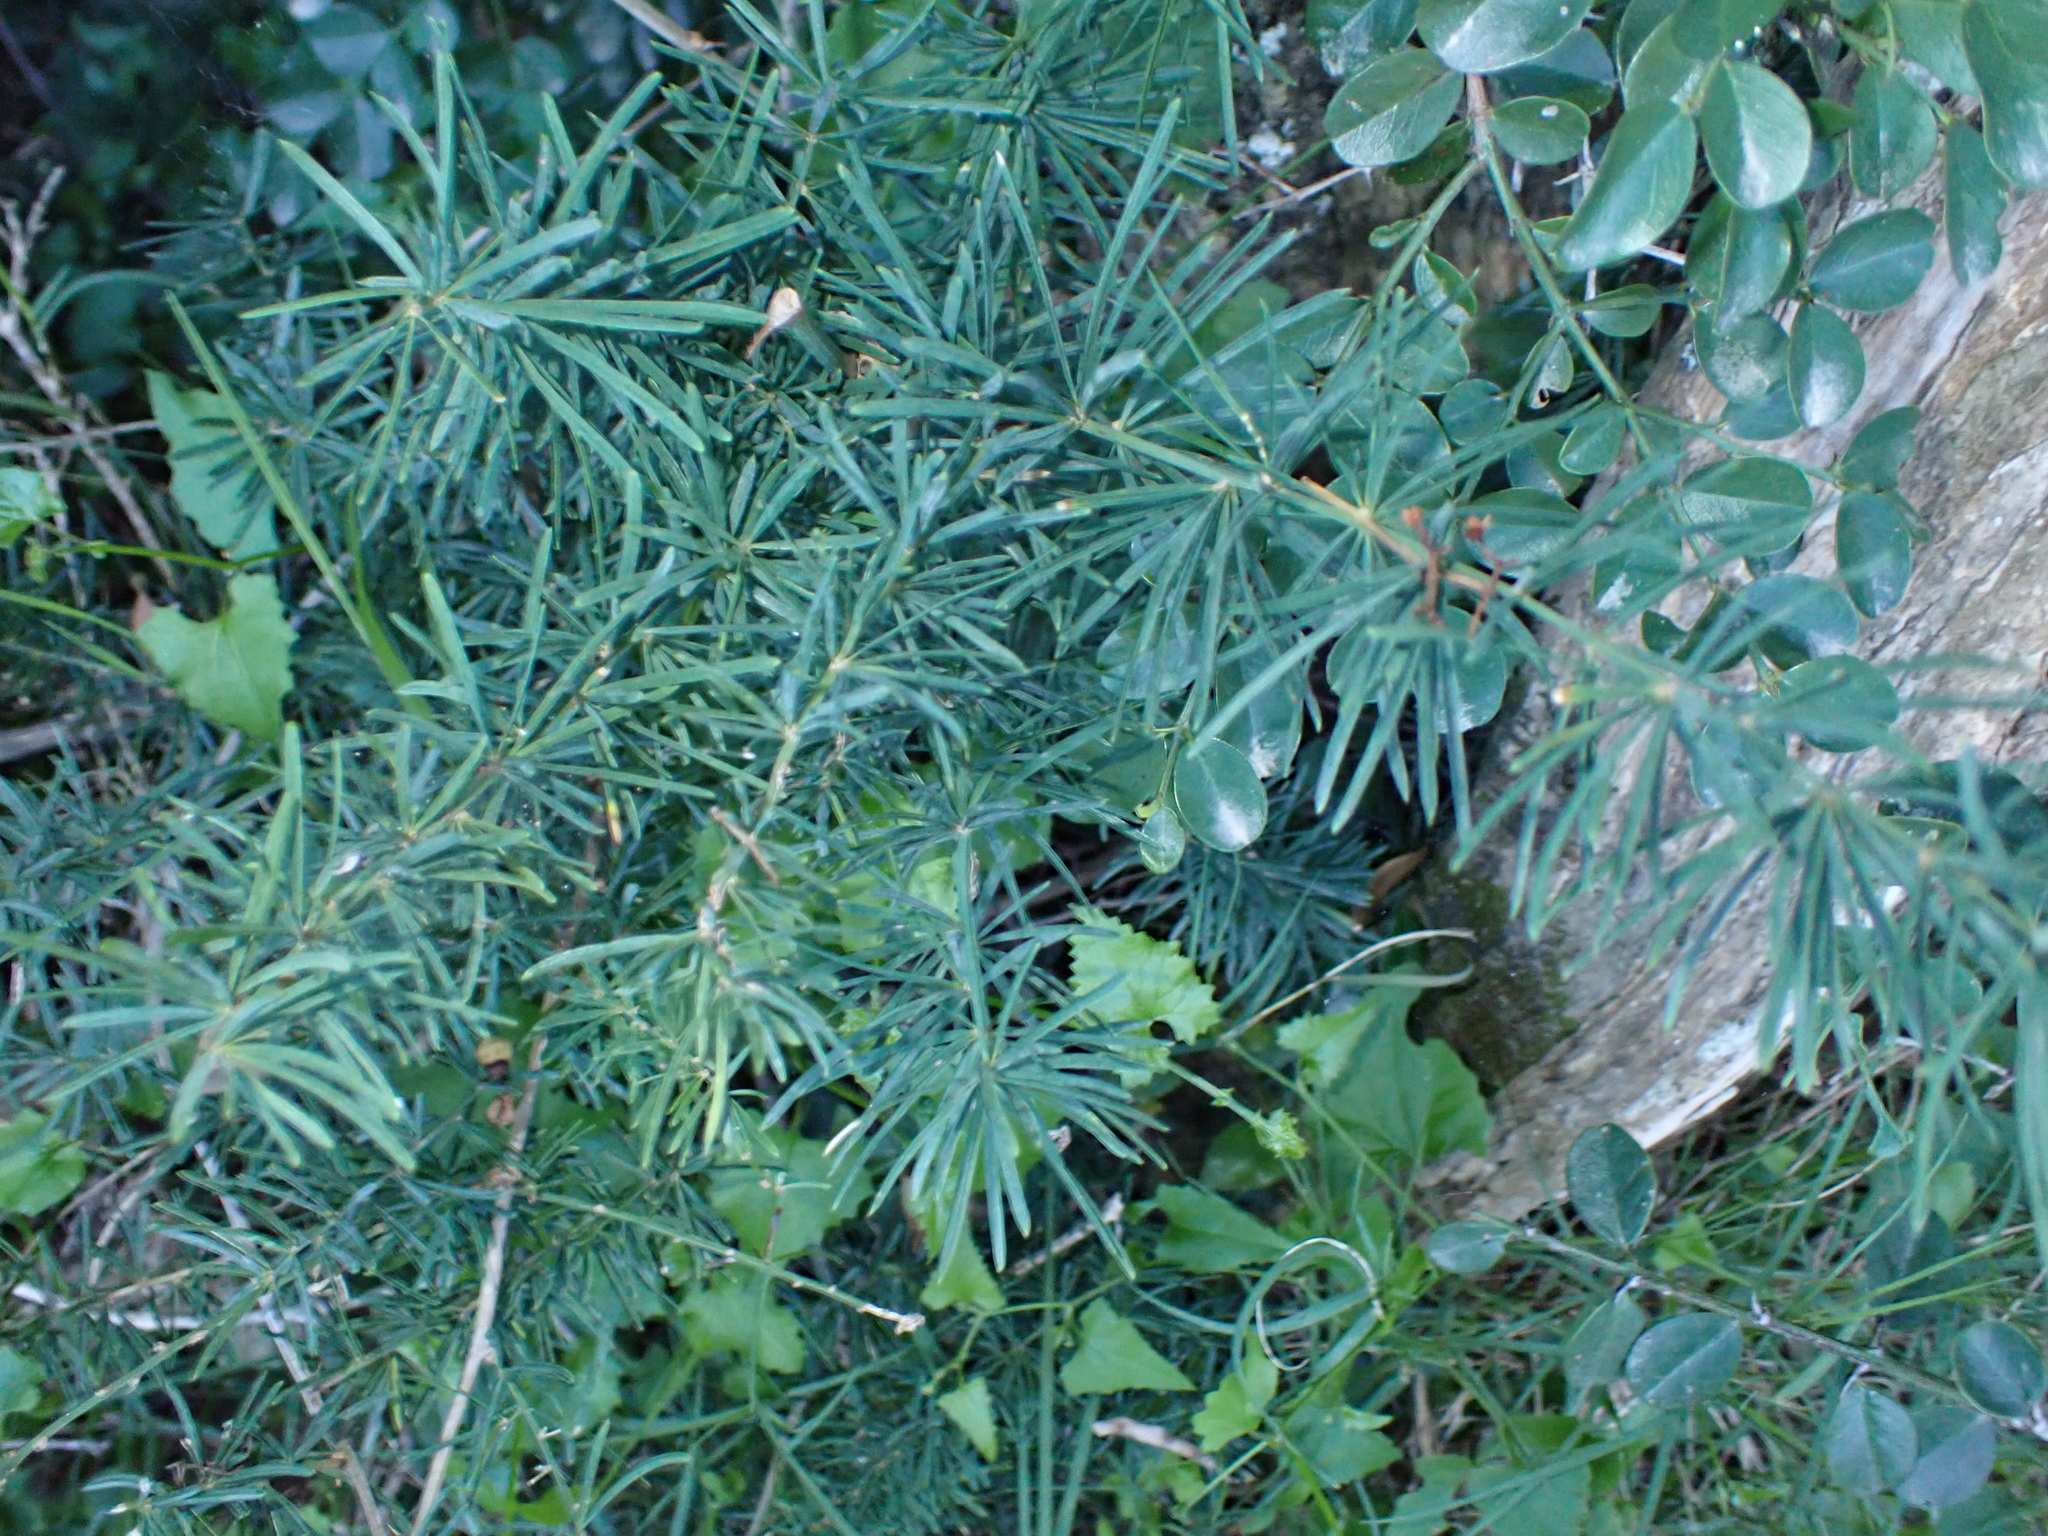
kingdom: Plantae
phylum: Tracheophyta
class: Liliopsida
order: Asparagales
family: Asparagaceae
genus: Asparagus
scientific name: Asparagus aethiopicus
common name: Sprenger's asparagus fern
